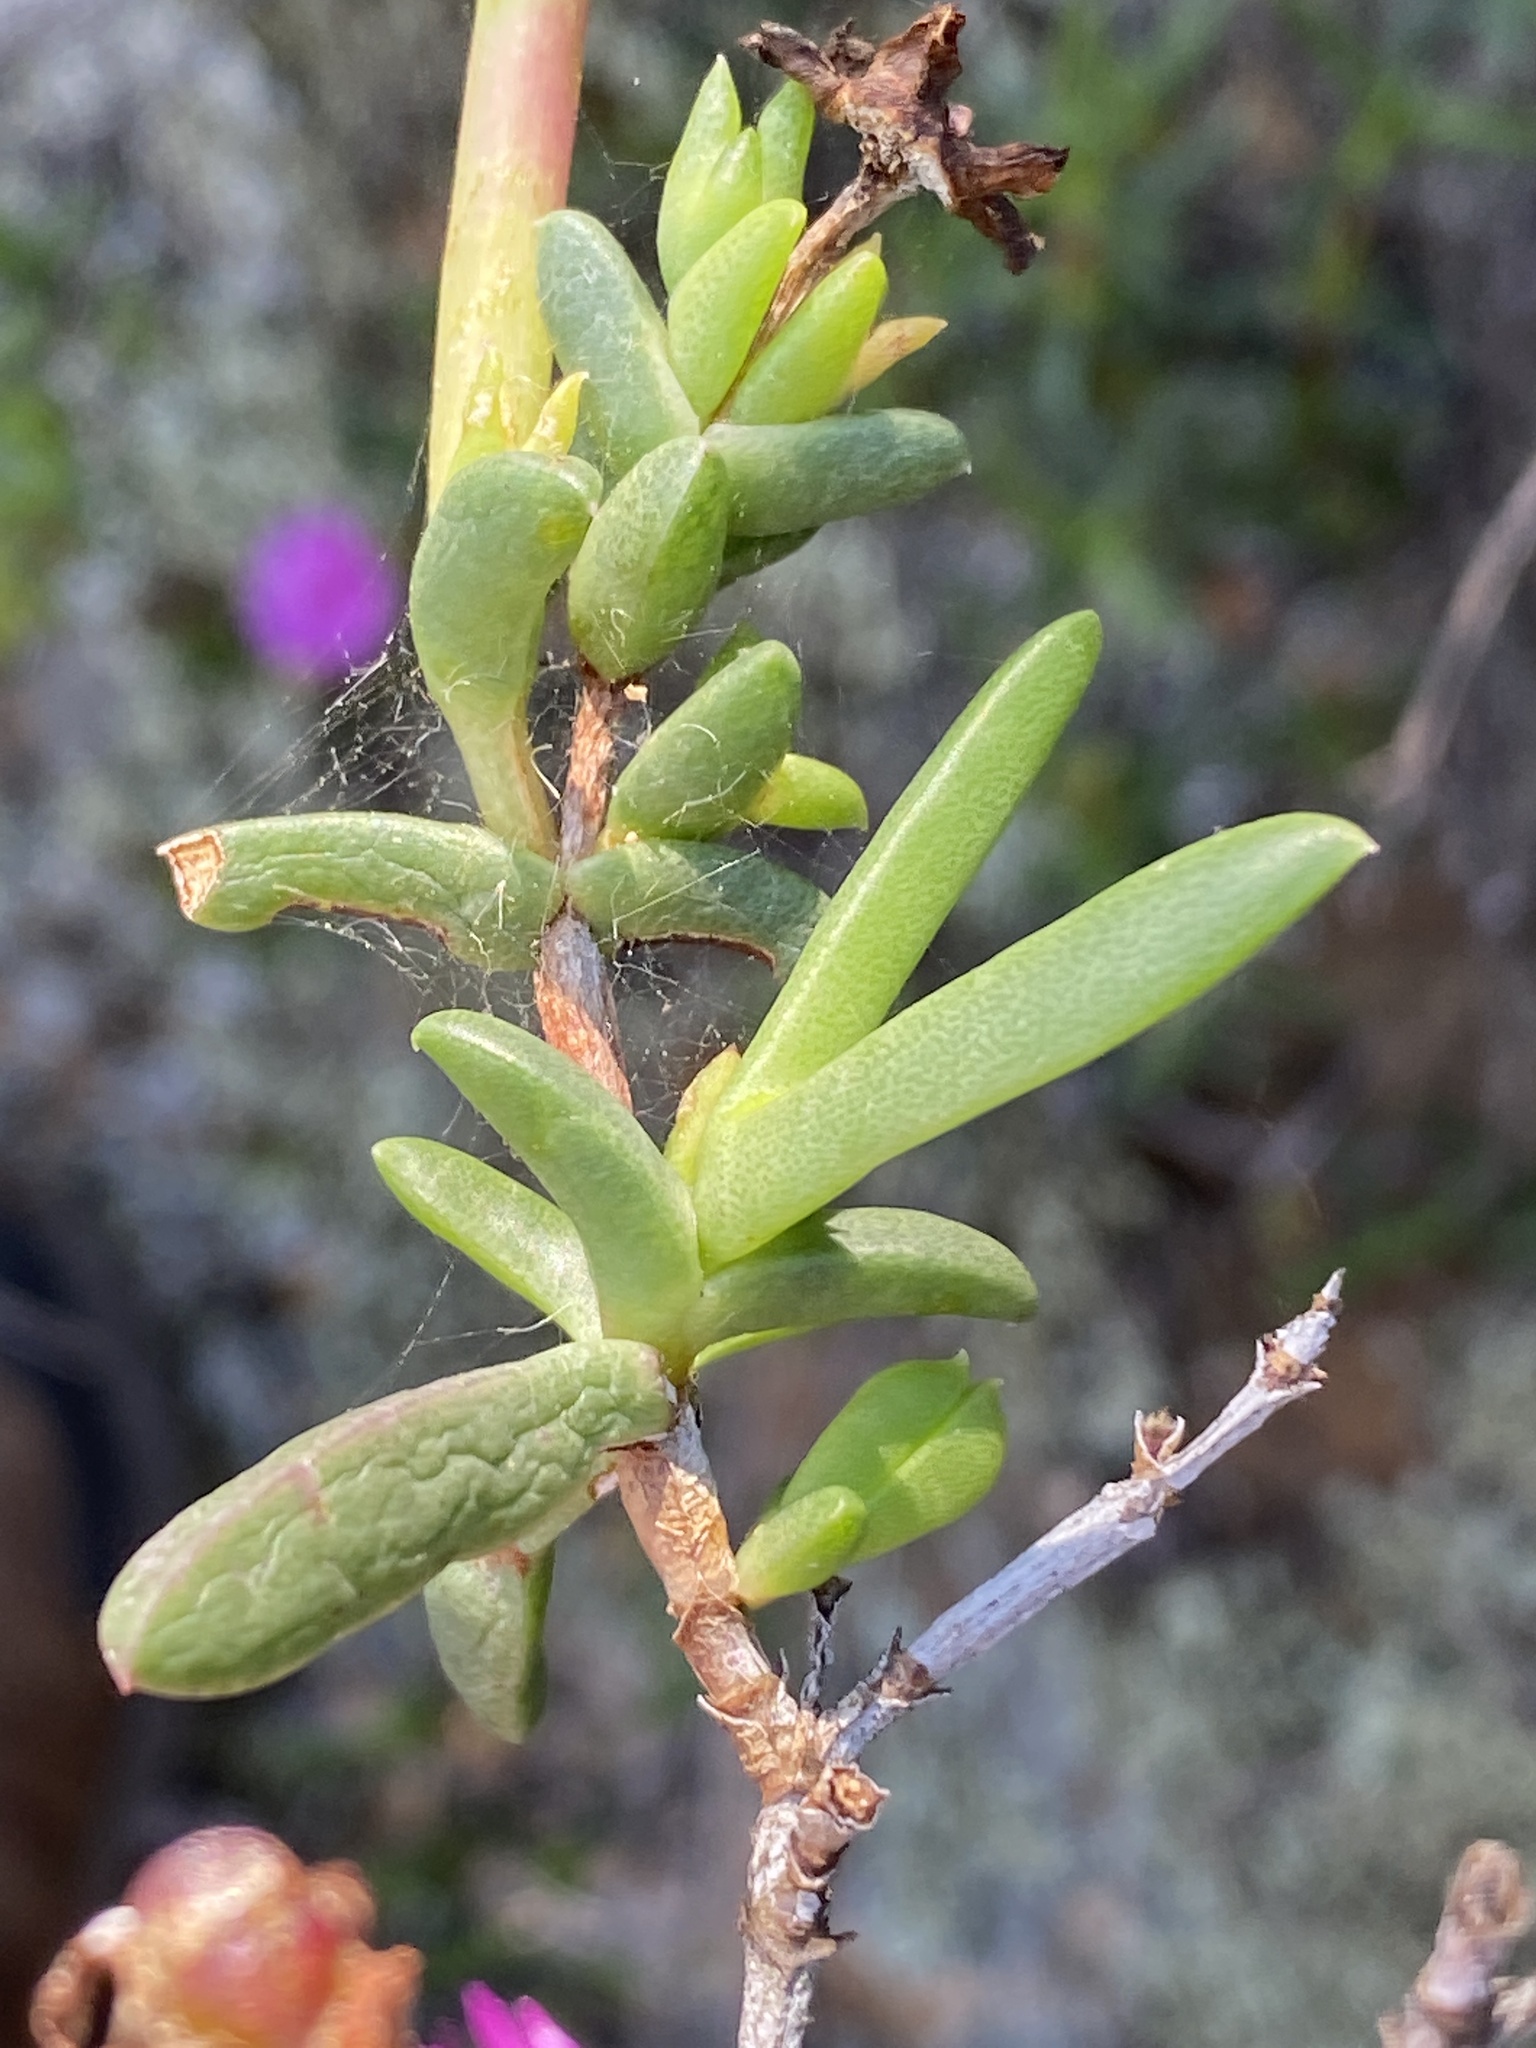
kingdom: Plantae
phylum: Tracheophyta
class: Magnoliopsida
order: Caryophyllales
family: Aizoaceae
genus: Esterhuysenia
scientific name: Esterhuysenia knysnana
